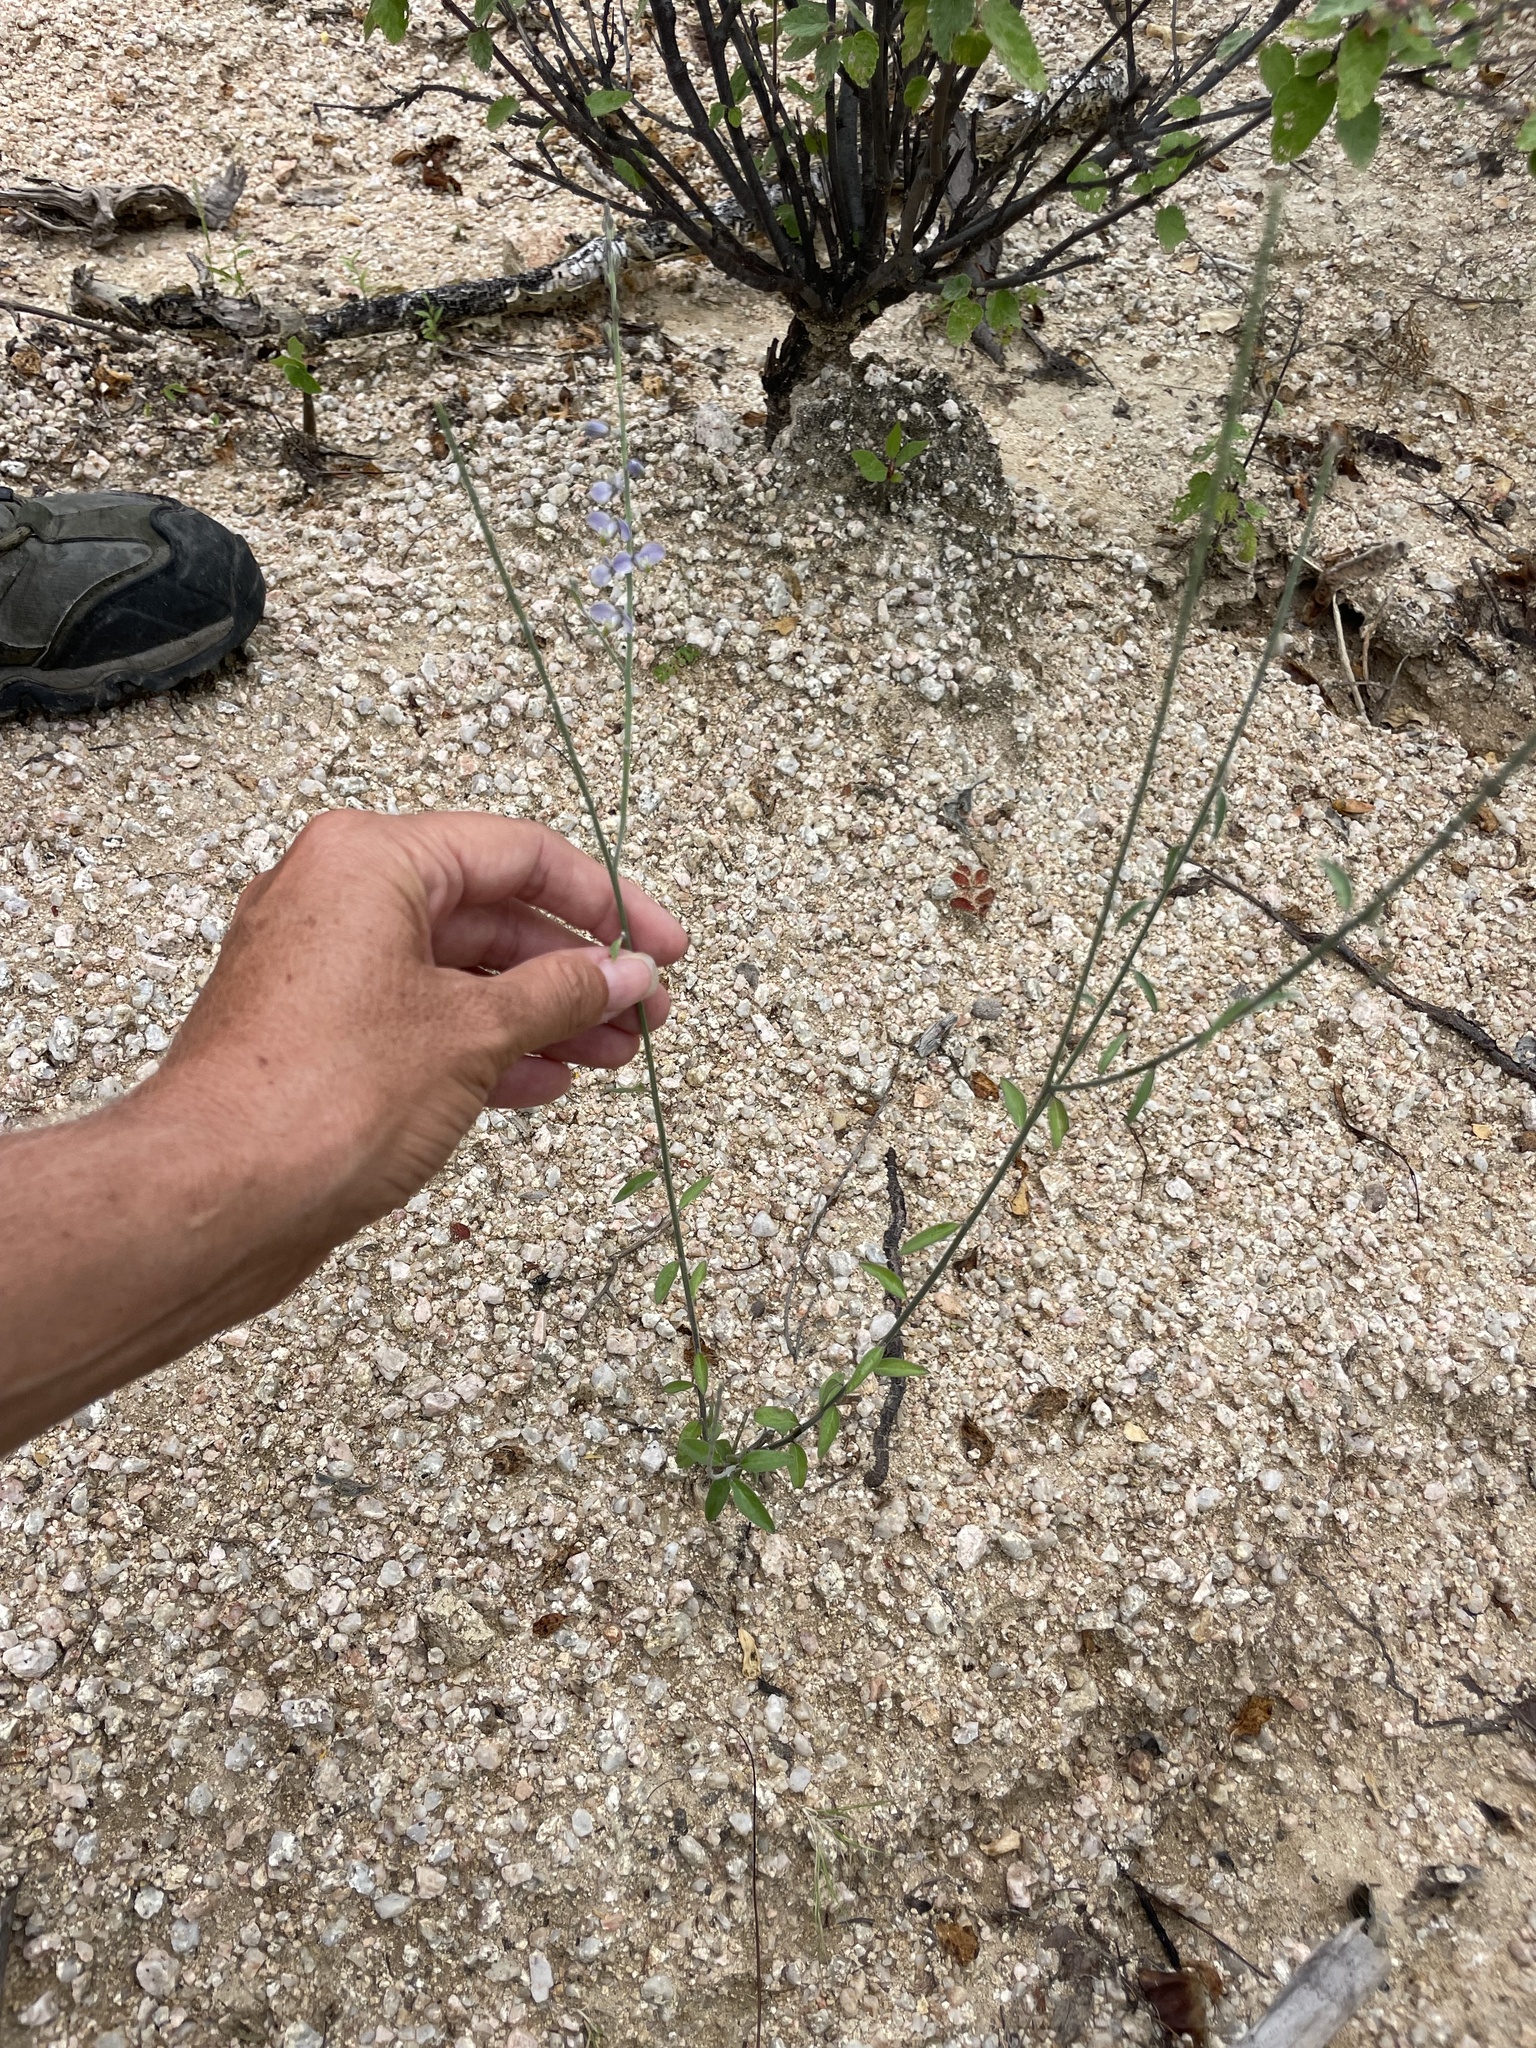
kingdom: Plantae
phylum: Tracheophyta
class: Magnoliopsida
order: Fabales
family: Polygalaceae
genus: Polygala
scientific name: Polygala magdalenae
